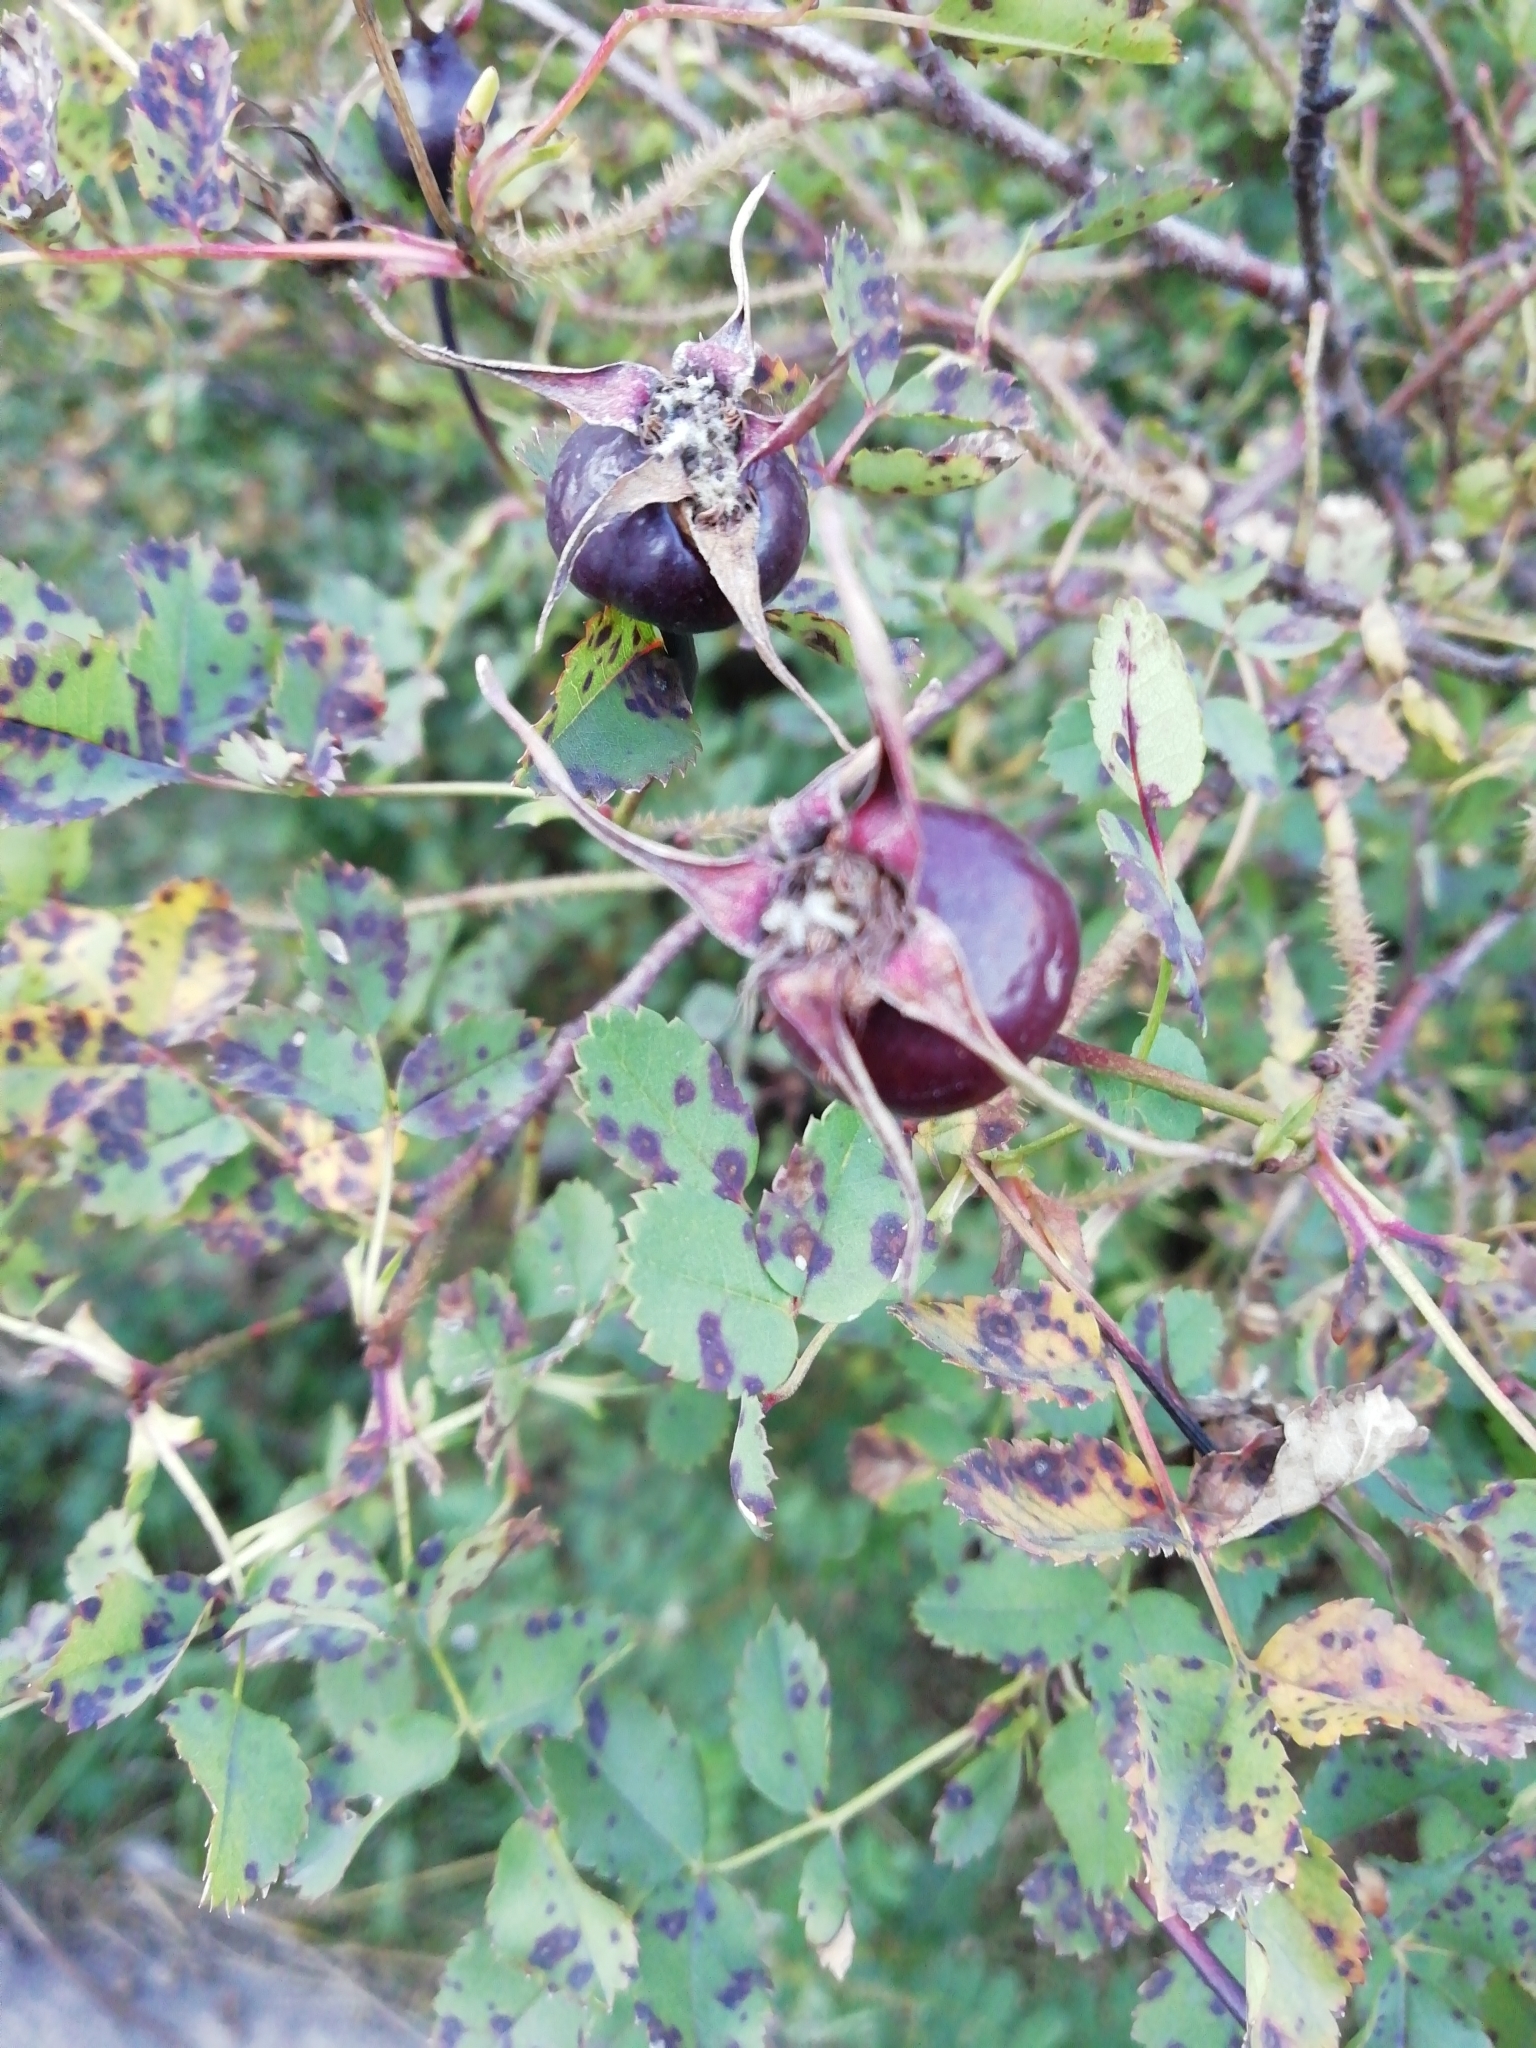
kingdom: Plantae
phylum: Tracheophyta
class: Magnoliopsida
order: Rosales
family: Rosaceae
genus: Rosa
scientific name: Rosa spinosissima
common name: Burnet rose
